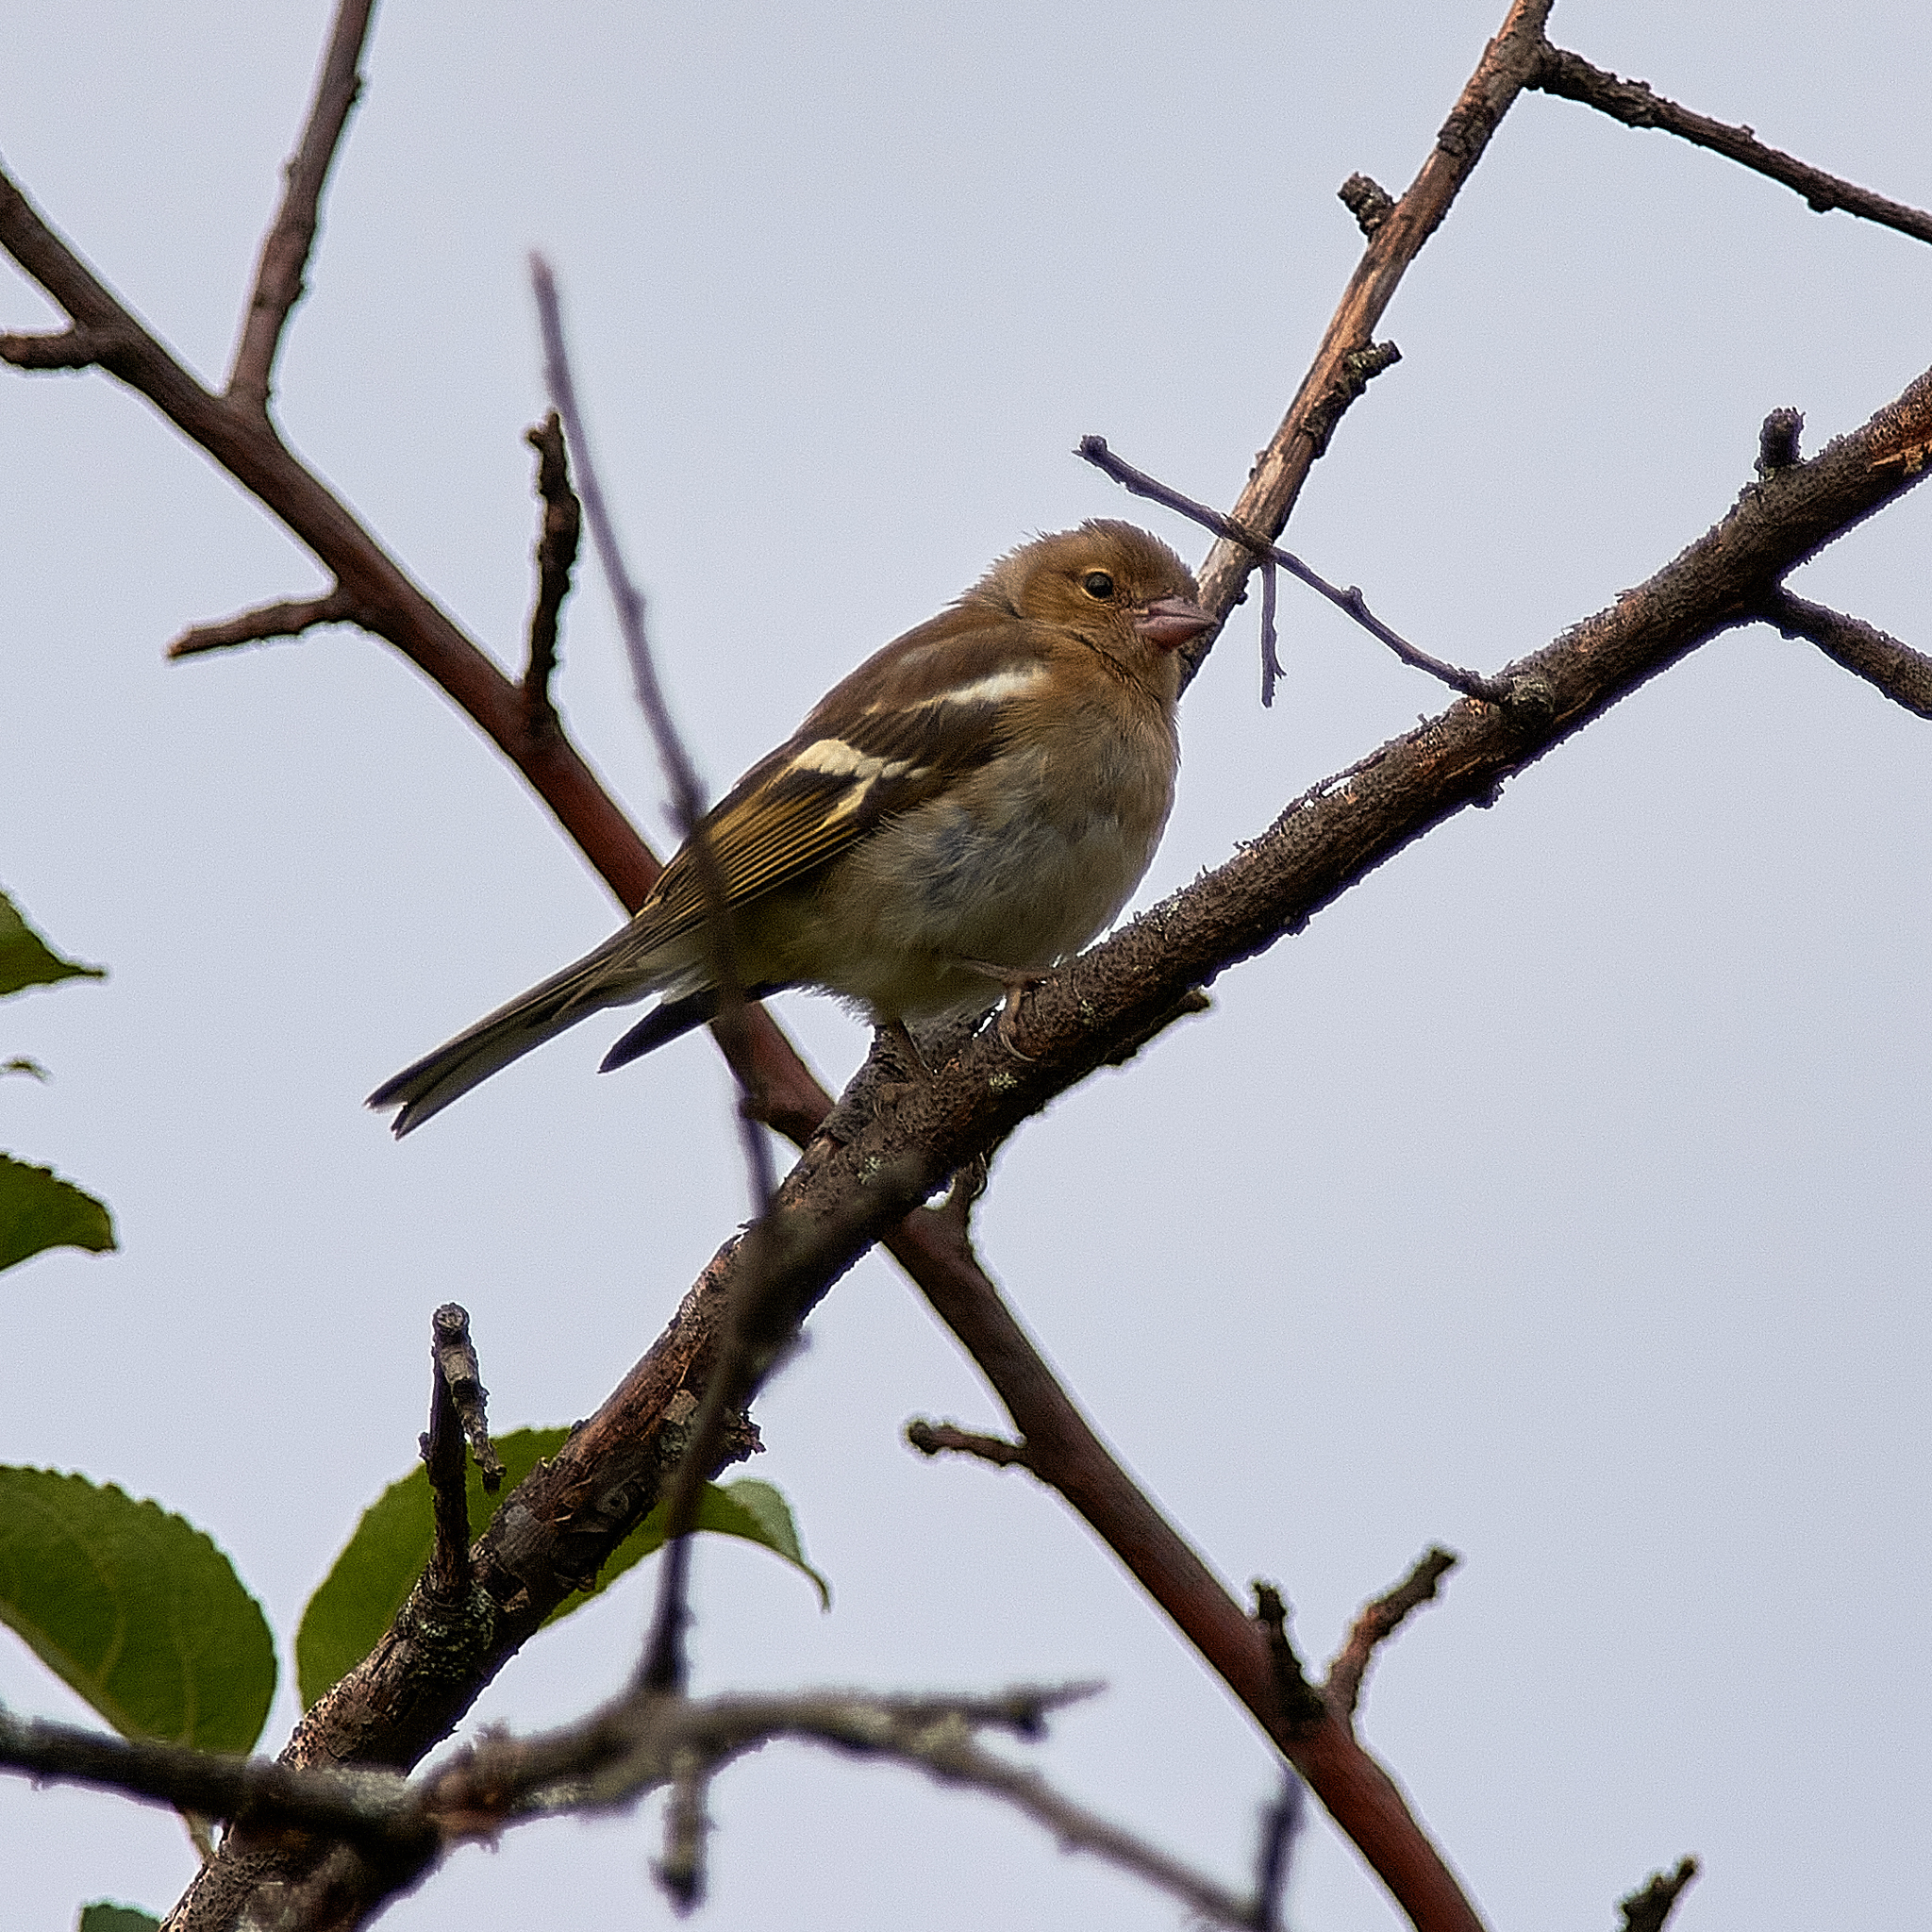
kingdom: Animalia
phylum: Chordata
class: Aves
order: Passeriformes
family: Fringillidae
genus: Fringilla
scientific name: Fringilla coelebs
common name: Common chaffinch
